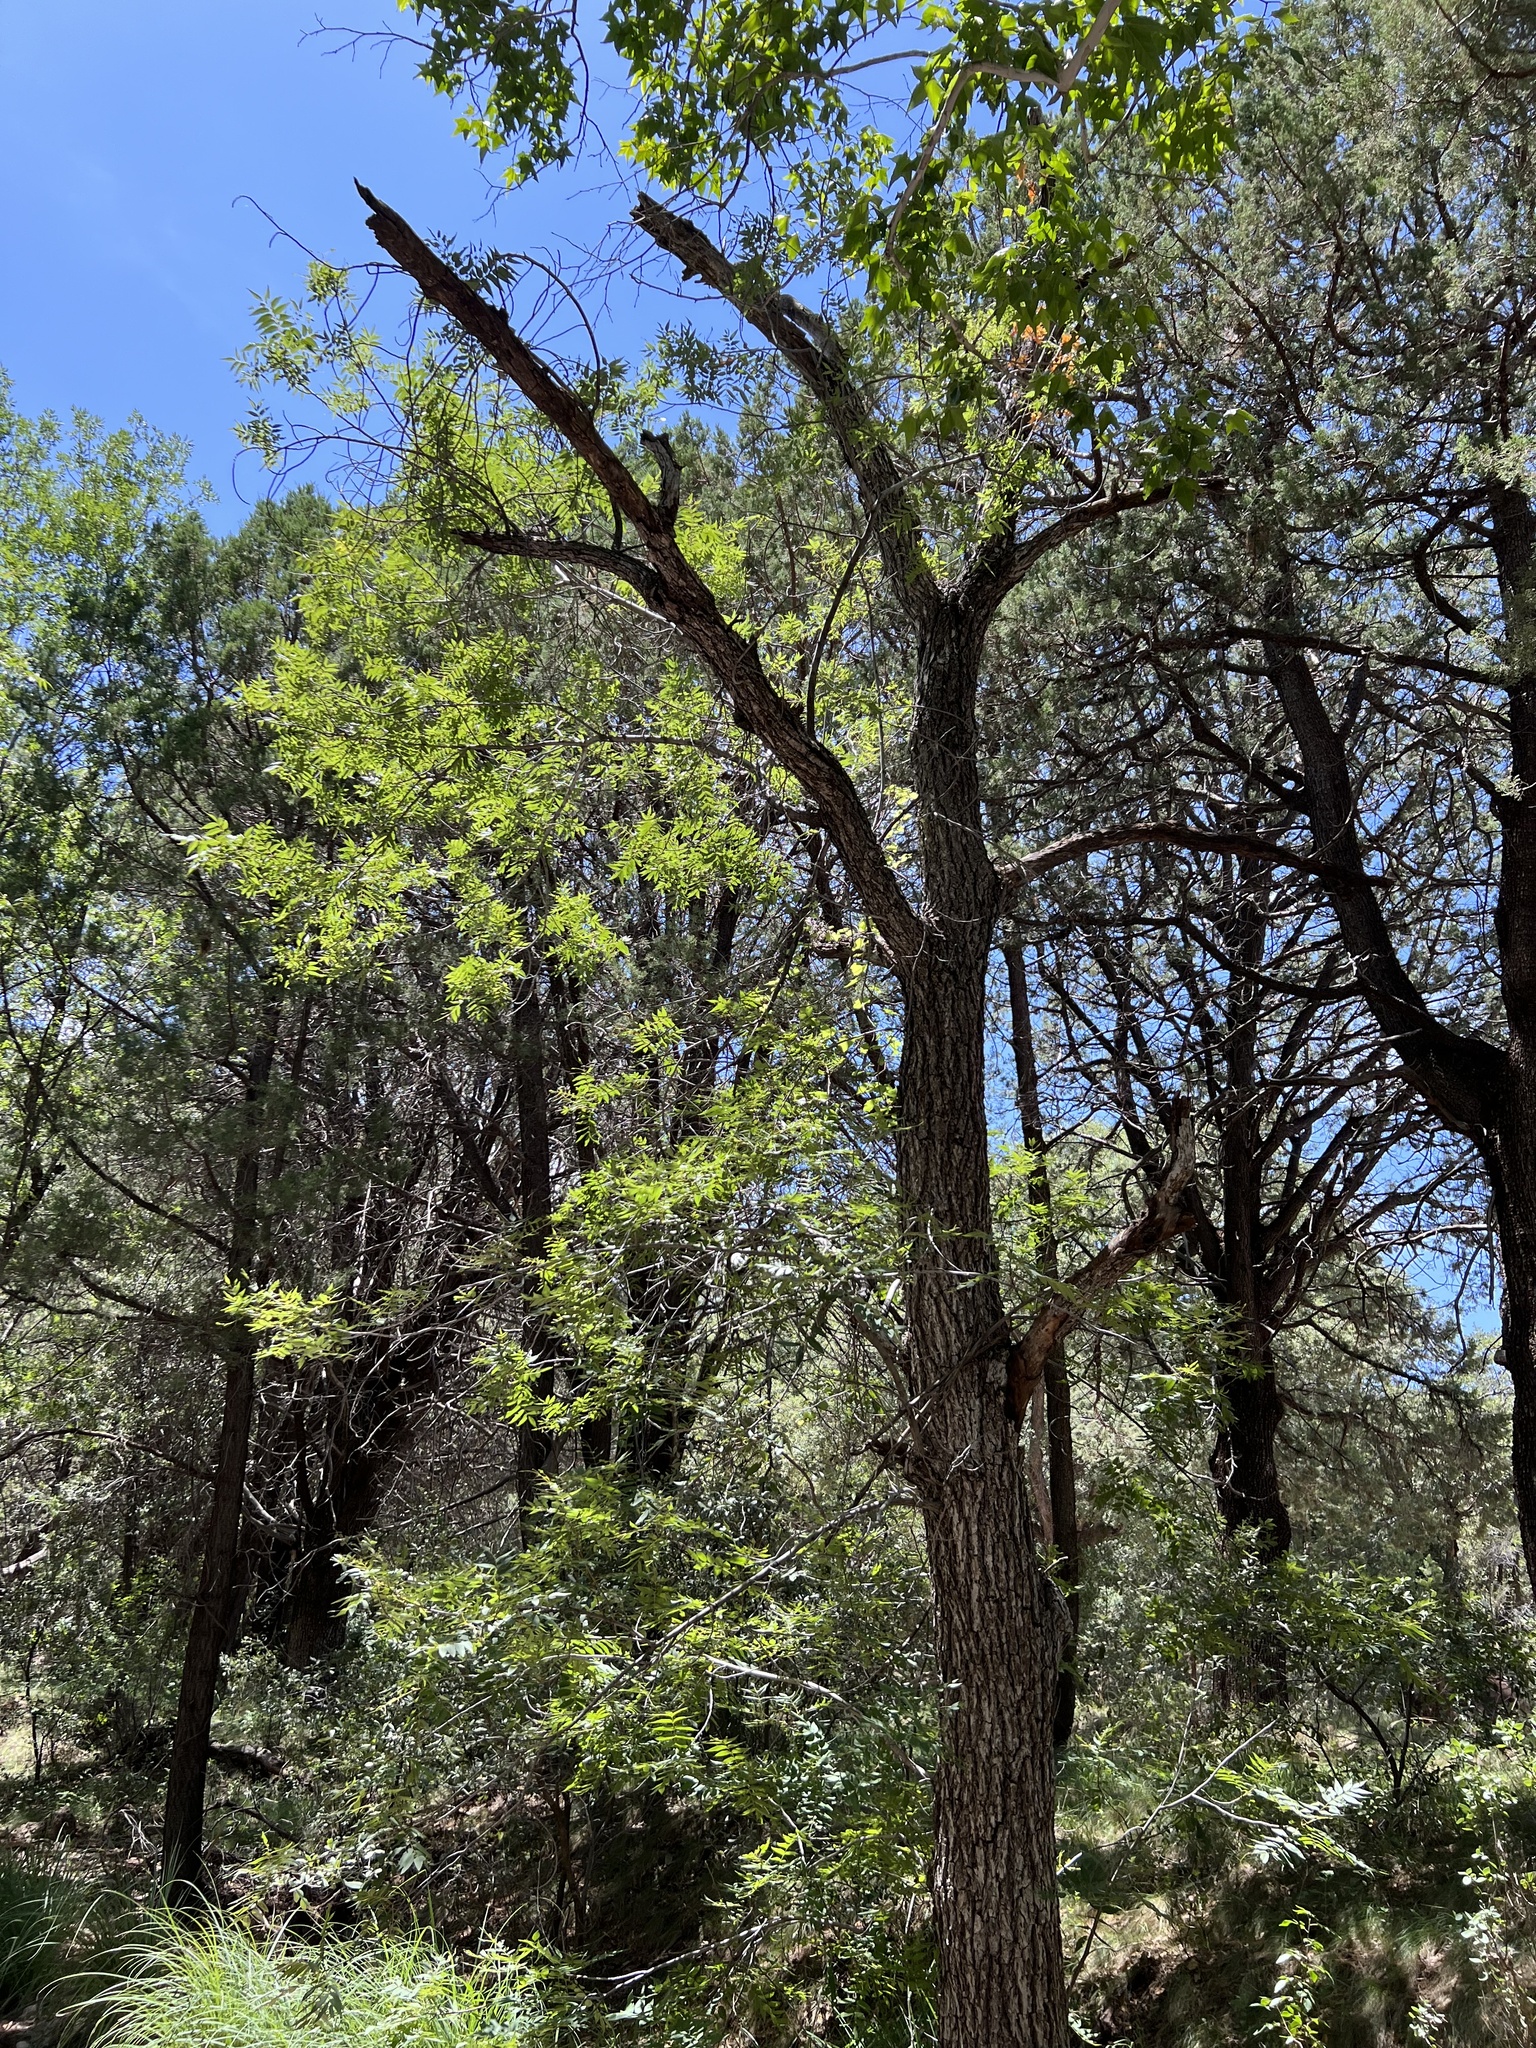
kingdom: Plantae
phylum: Tracheophyta
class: Magnoliopsida
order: Fagales
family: Juglandaceae
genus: Juglans
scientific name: Juglans major
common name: Arizona walnut
